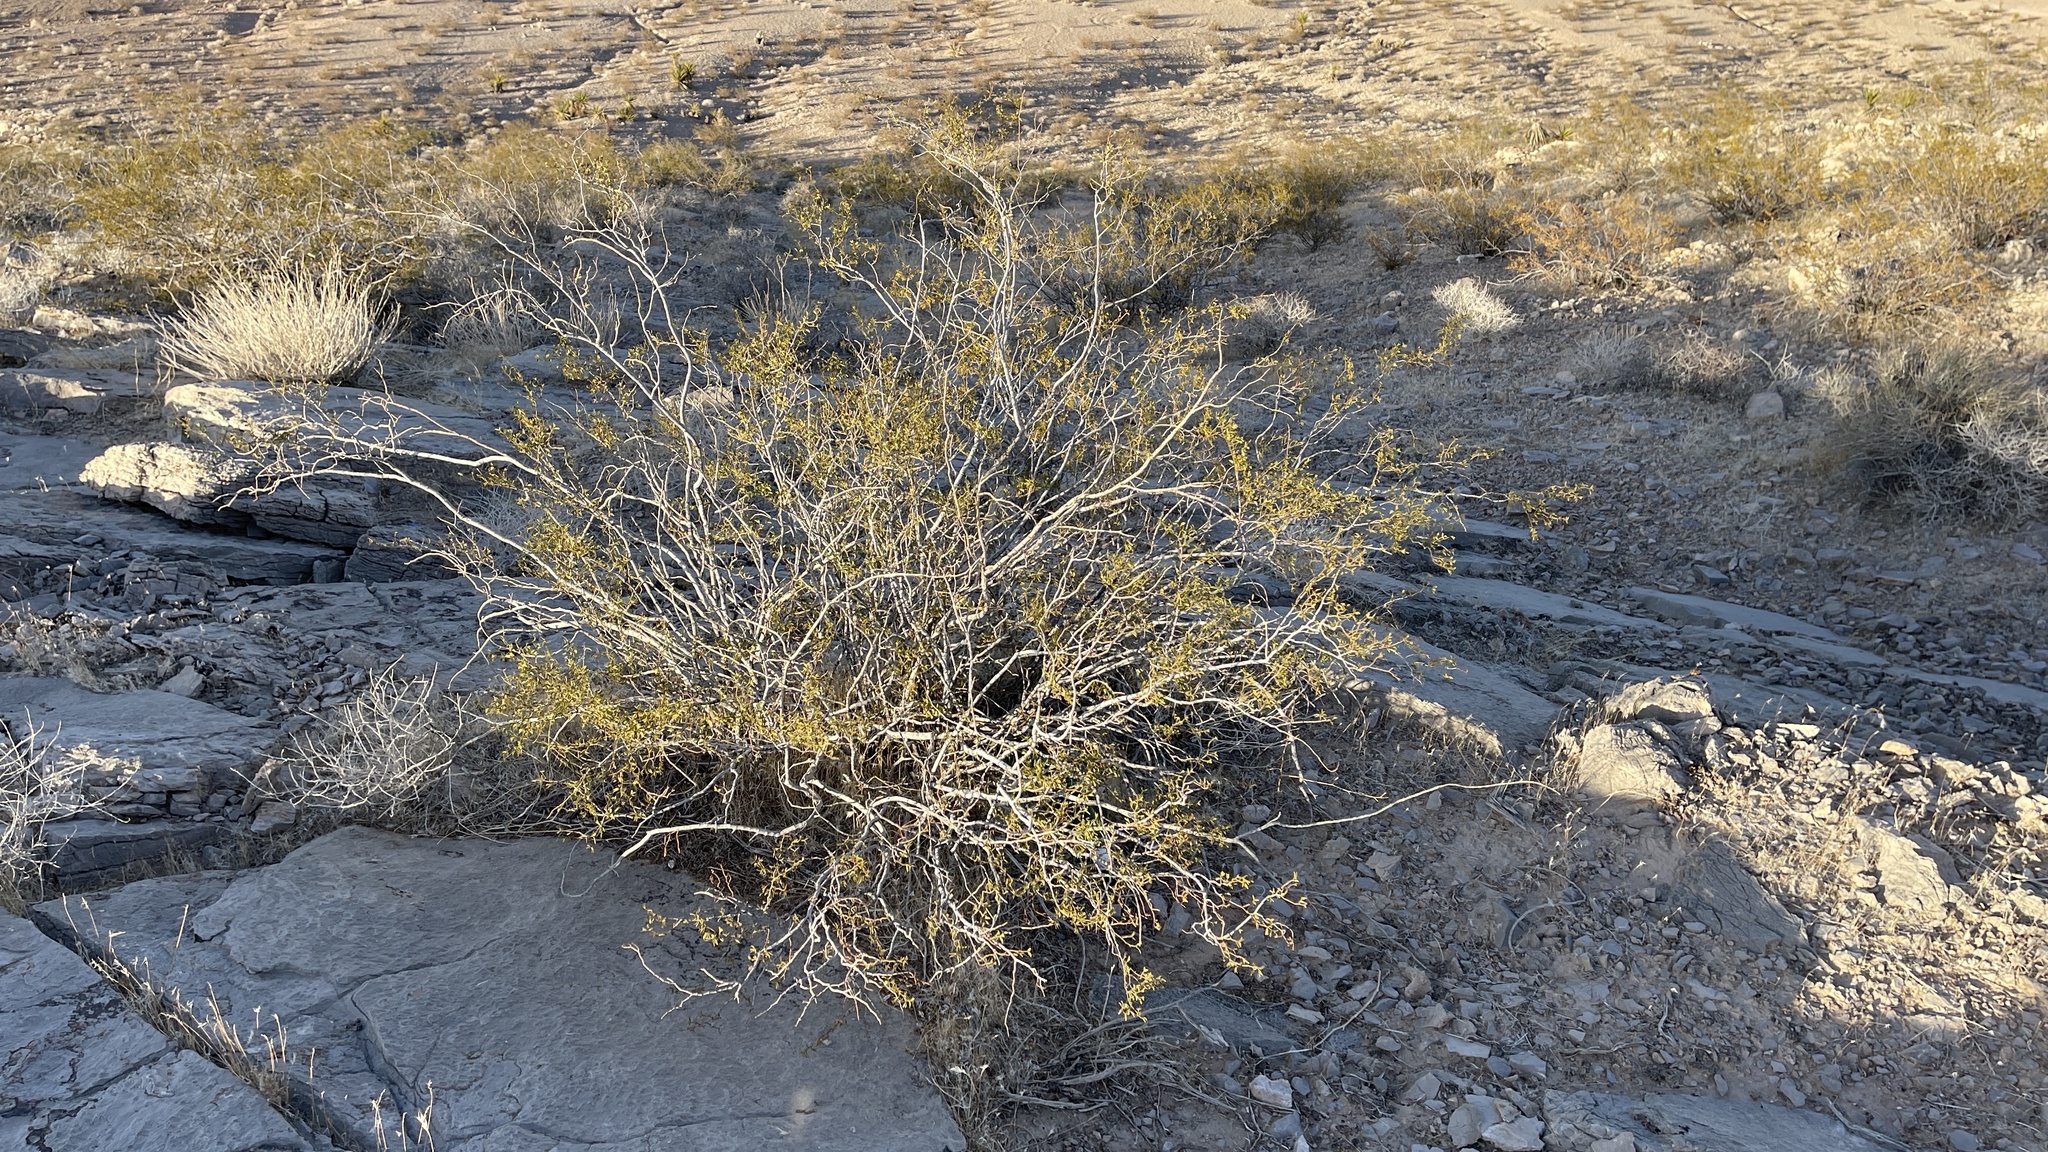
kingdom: Plantae
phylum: Tracheophyta
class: Magnoliopsida
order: Zygophyllales
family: Zygophyllaceae
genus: Larrea
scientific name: Larrea tridentata
